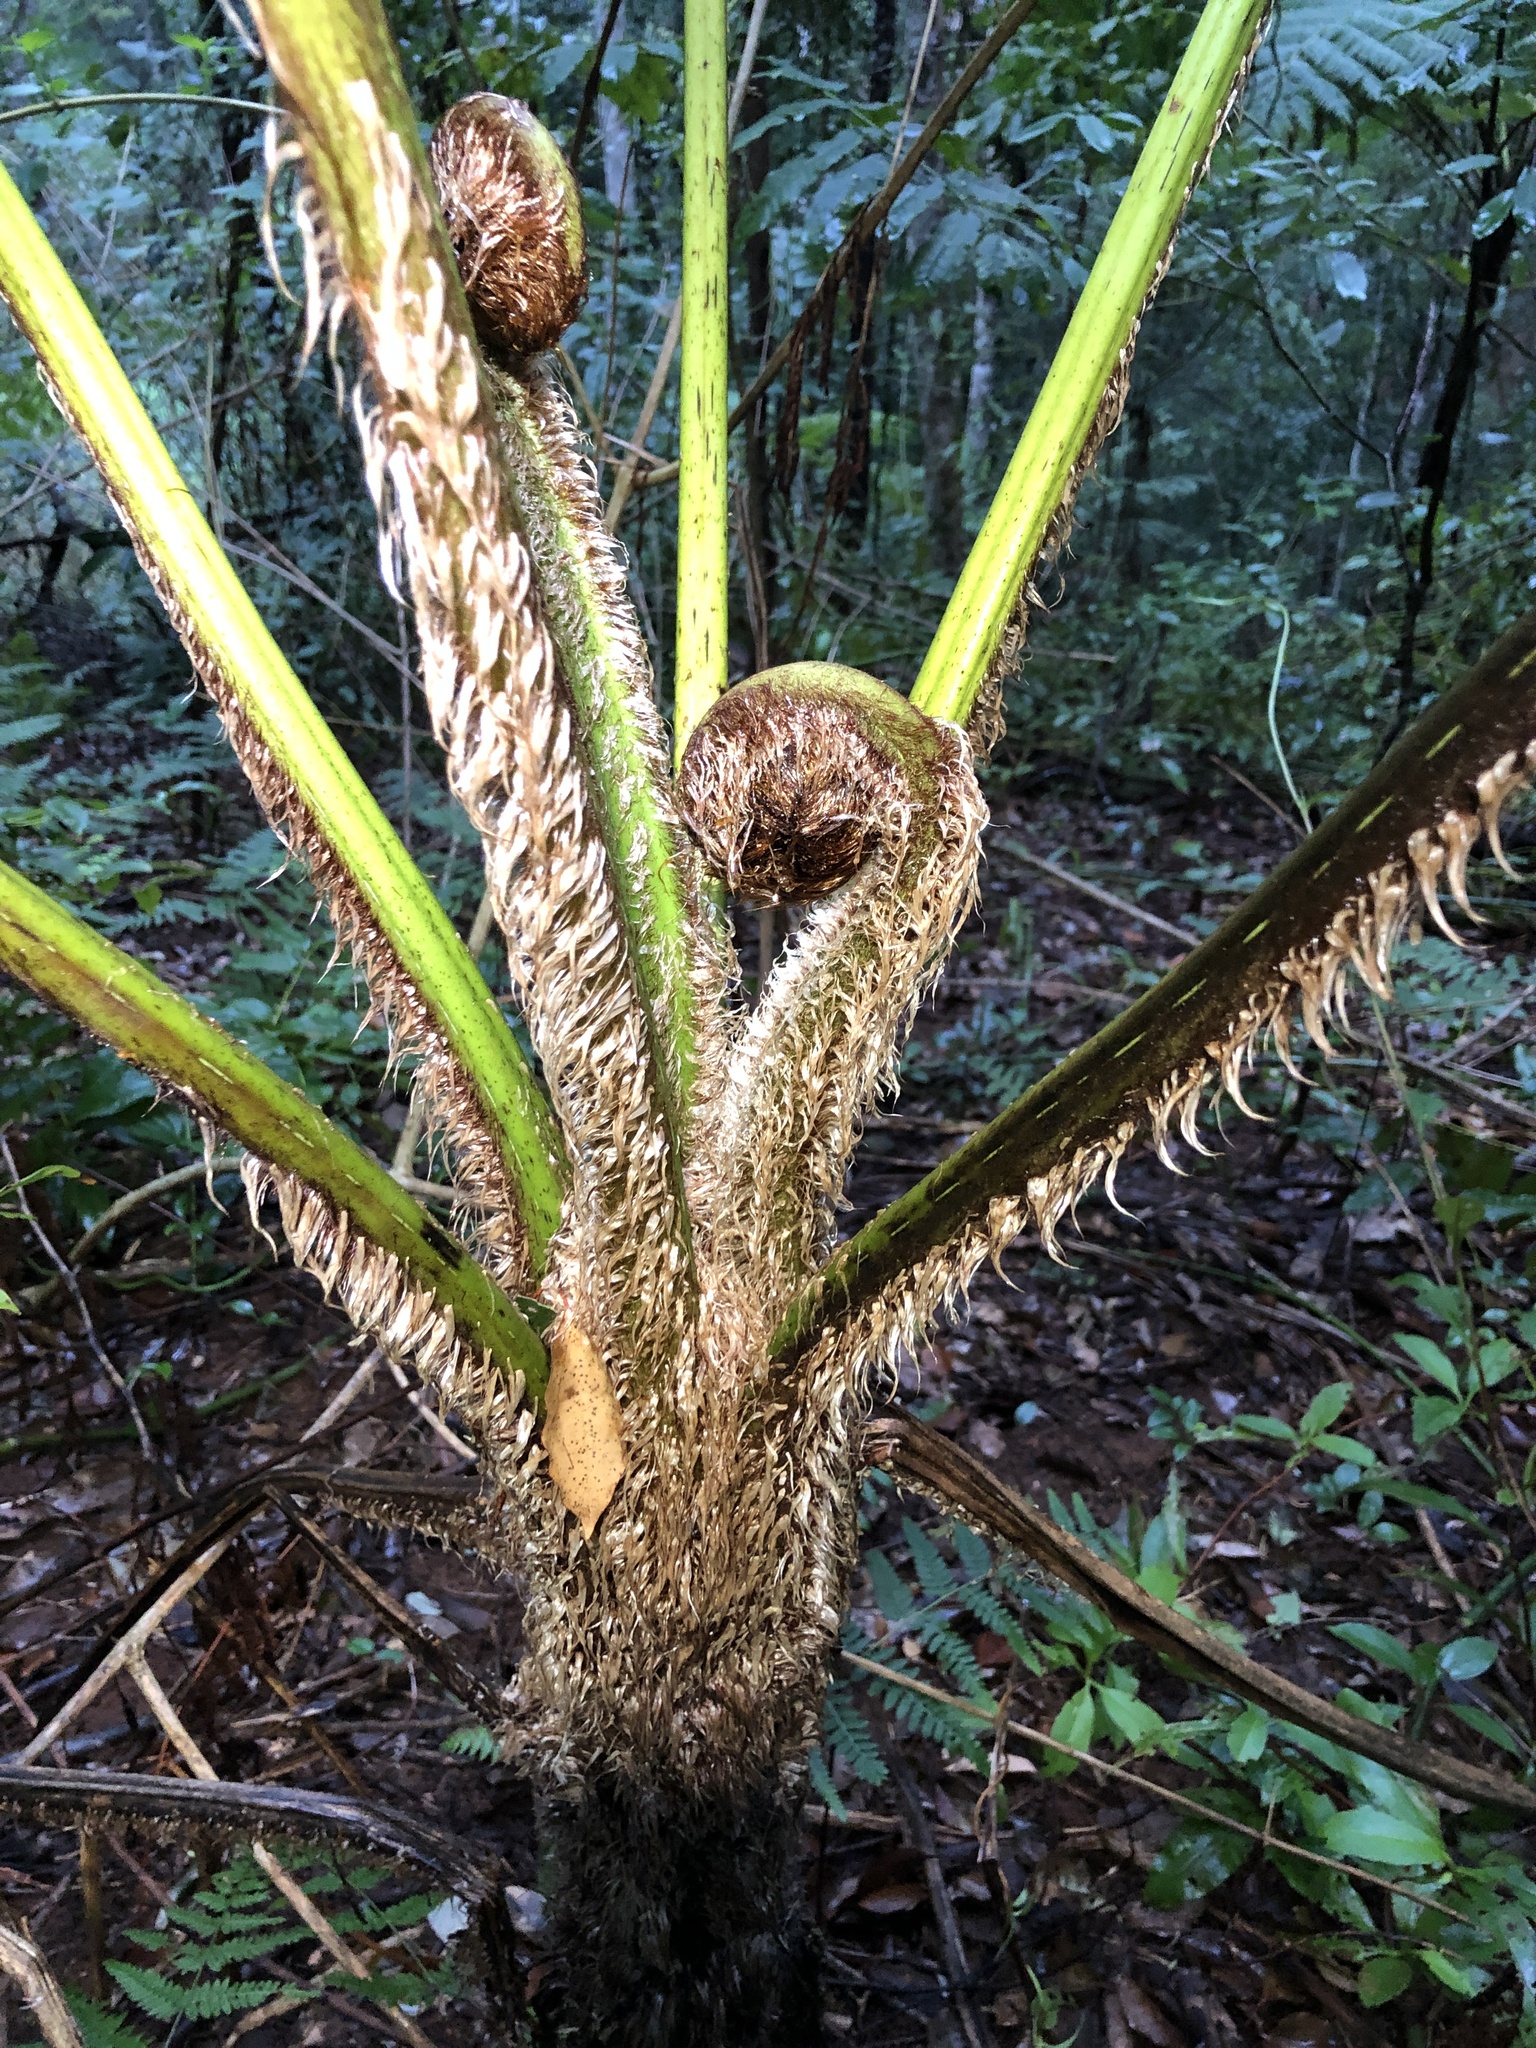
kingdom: Plantae
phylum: Tracheophyta
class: Polypodiopsida
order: Cyatheales
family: Cyatheaceae
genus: Sphaeropteris
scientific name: Sphaeropteris cooperi
